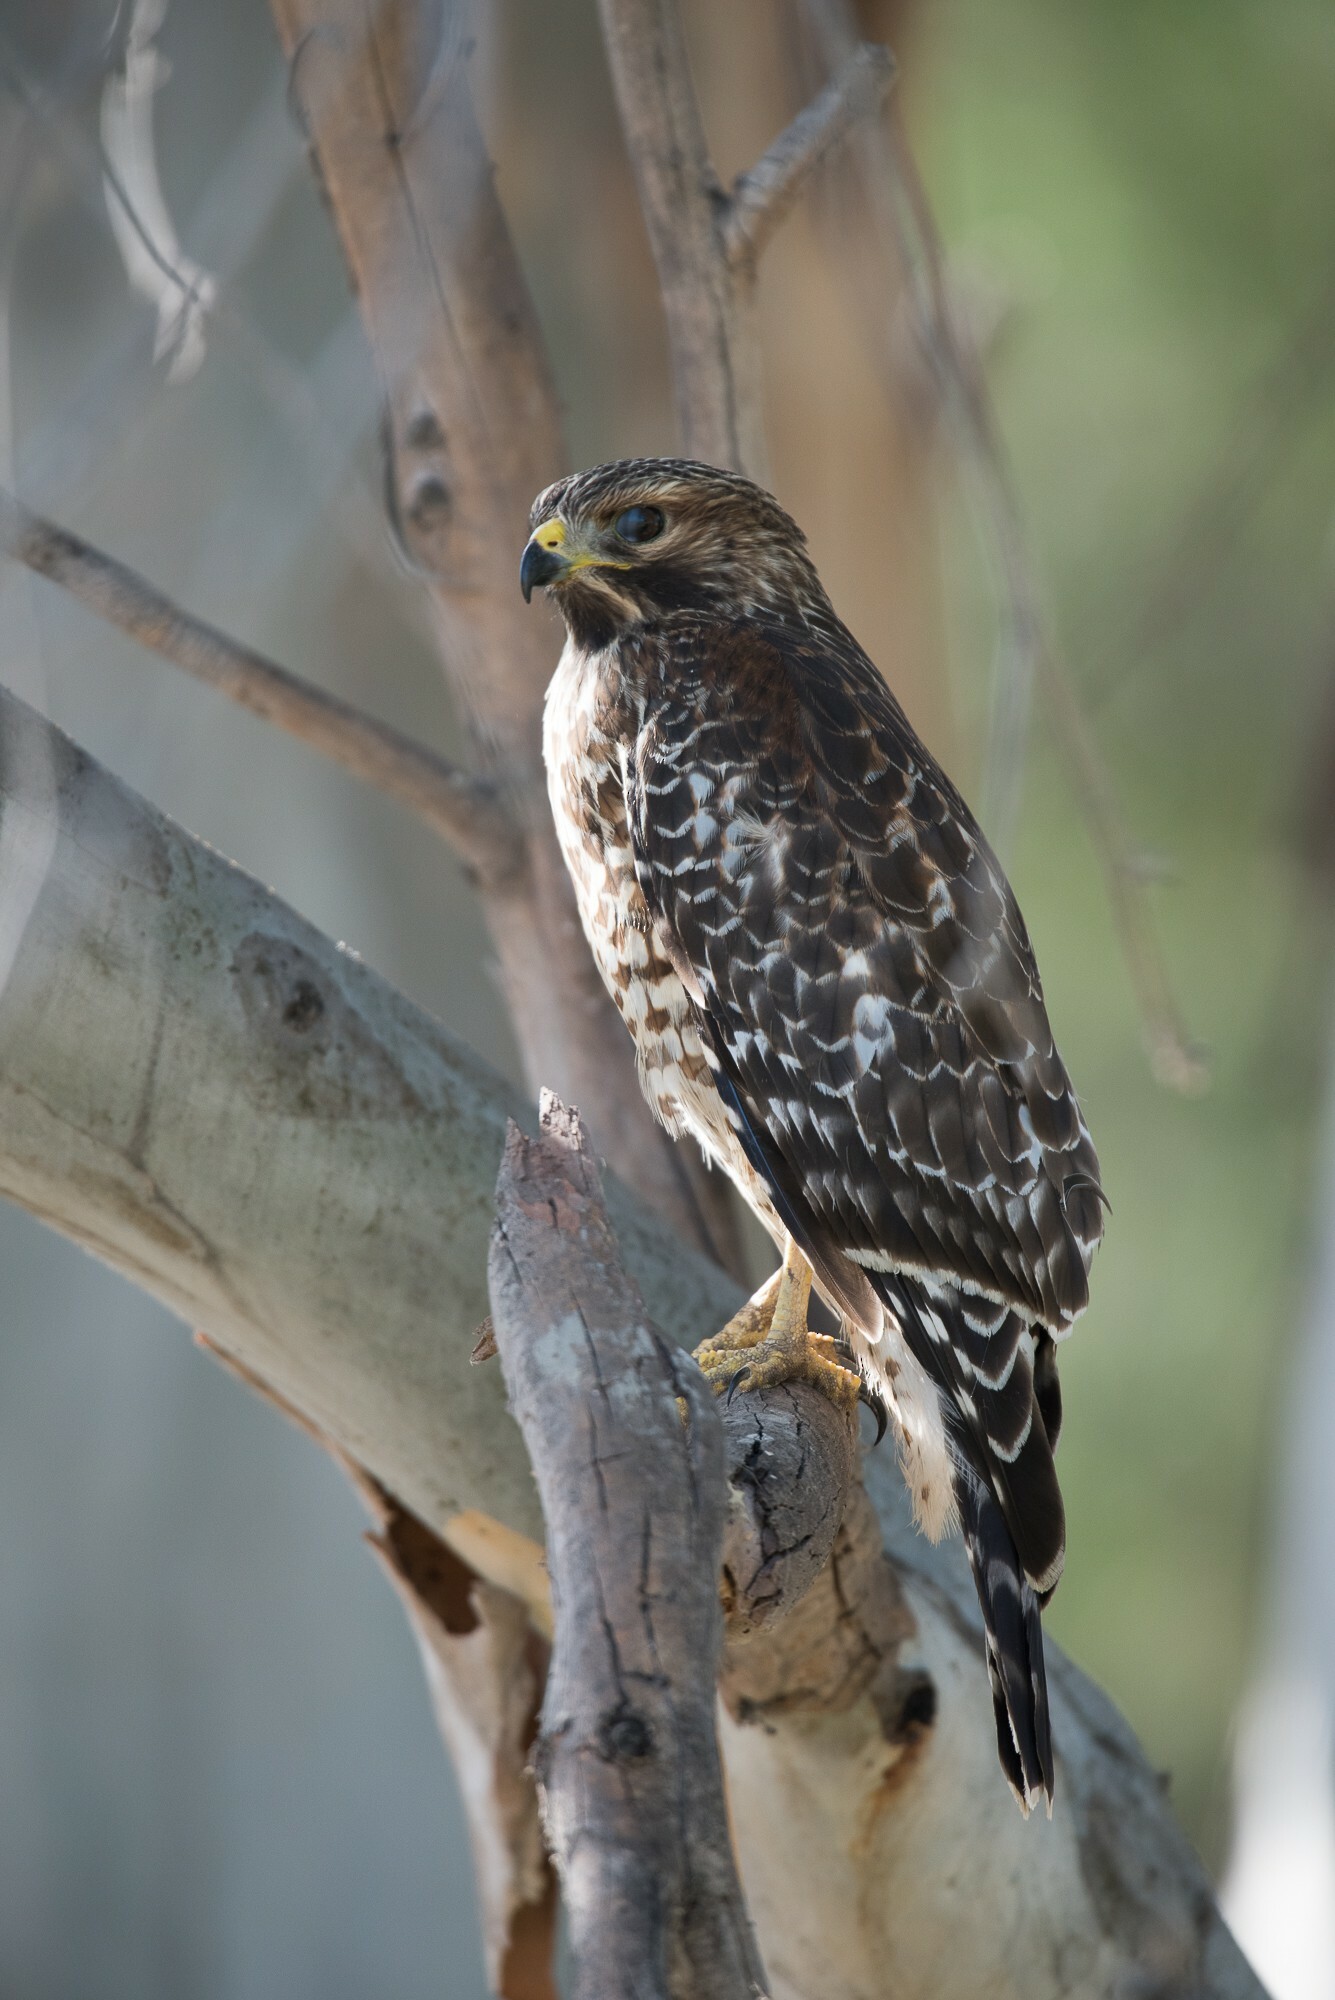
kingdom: Animalia
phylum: Chordata
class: Aves
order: Accipitriformes
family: Accipitridae
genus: Buteo
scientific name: Buteo lineatus
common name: Red-shouldered hawk
